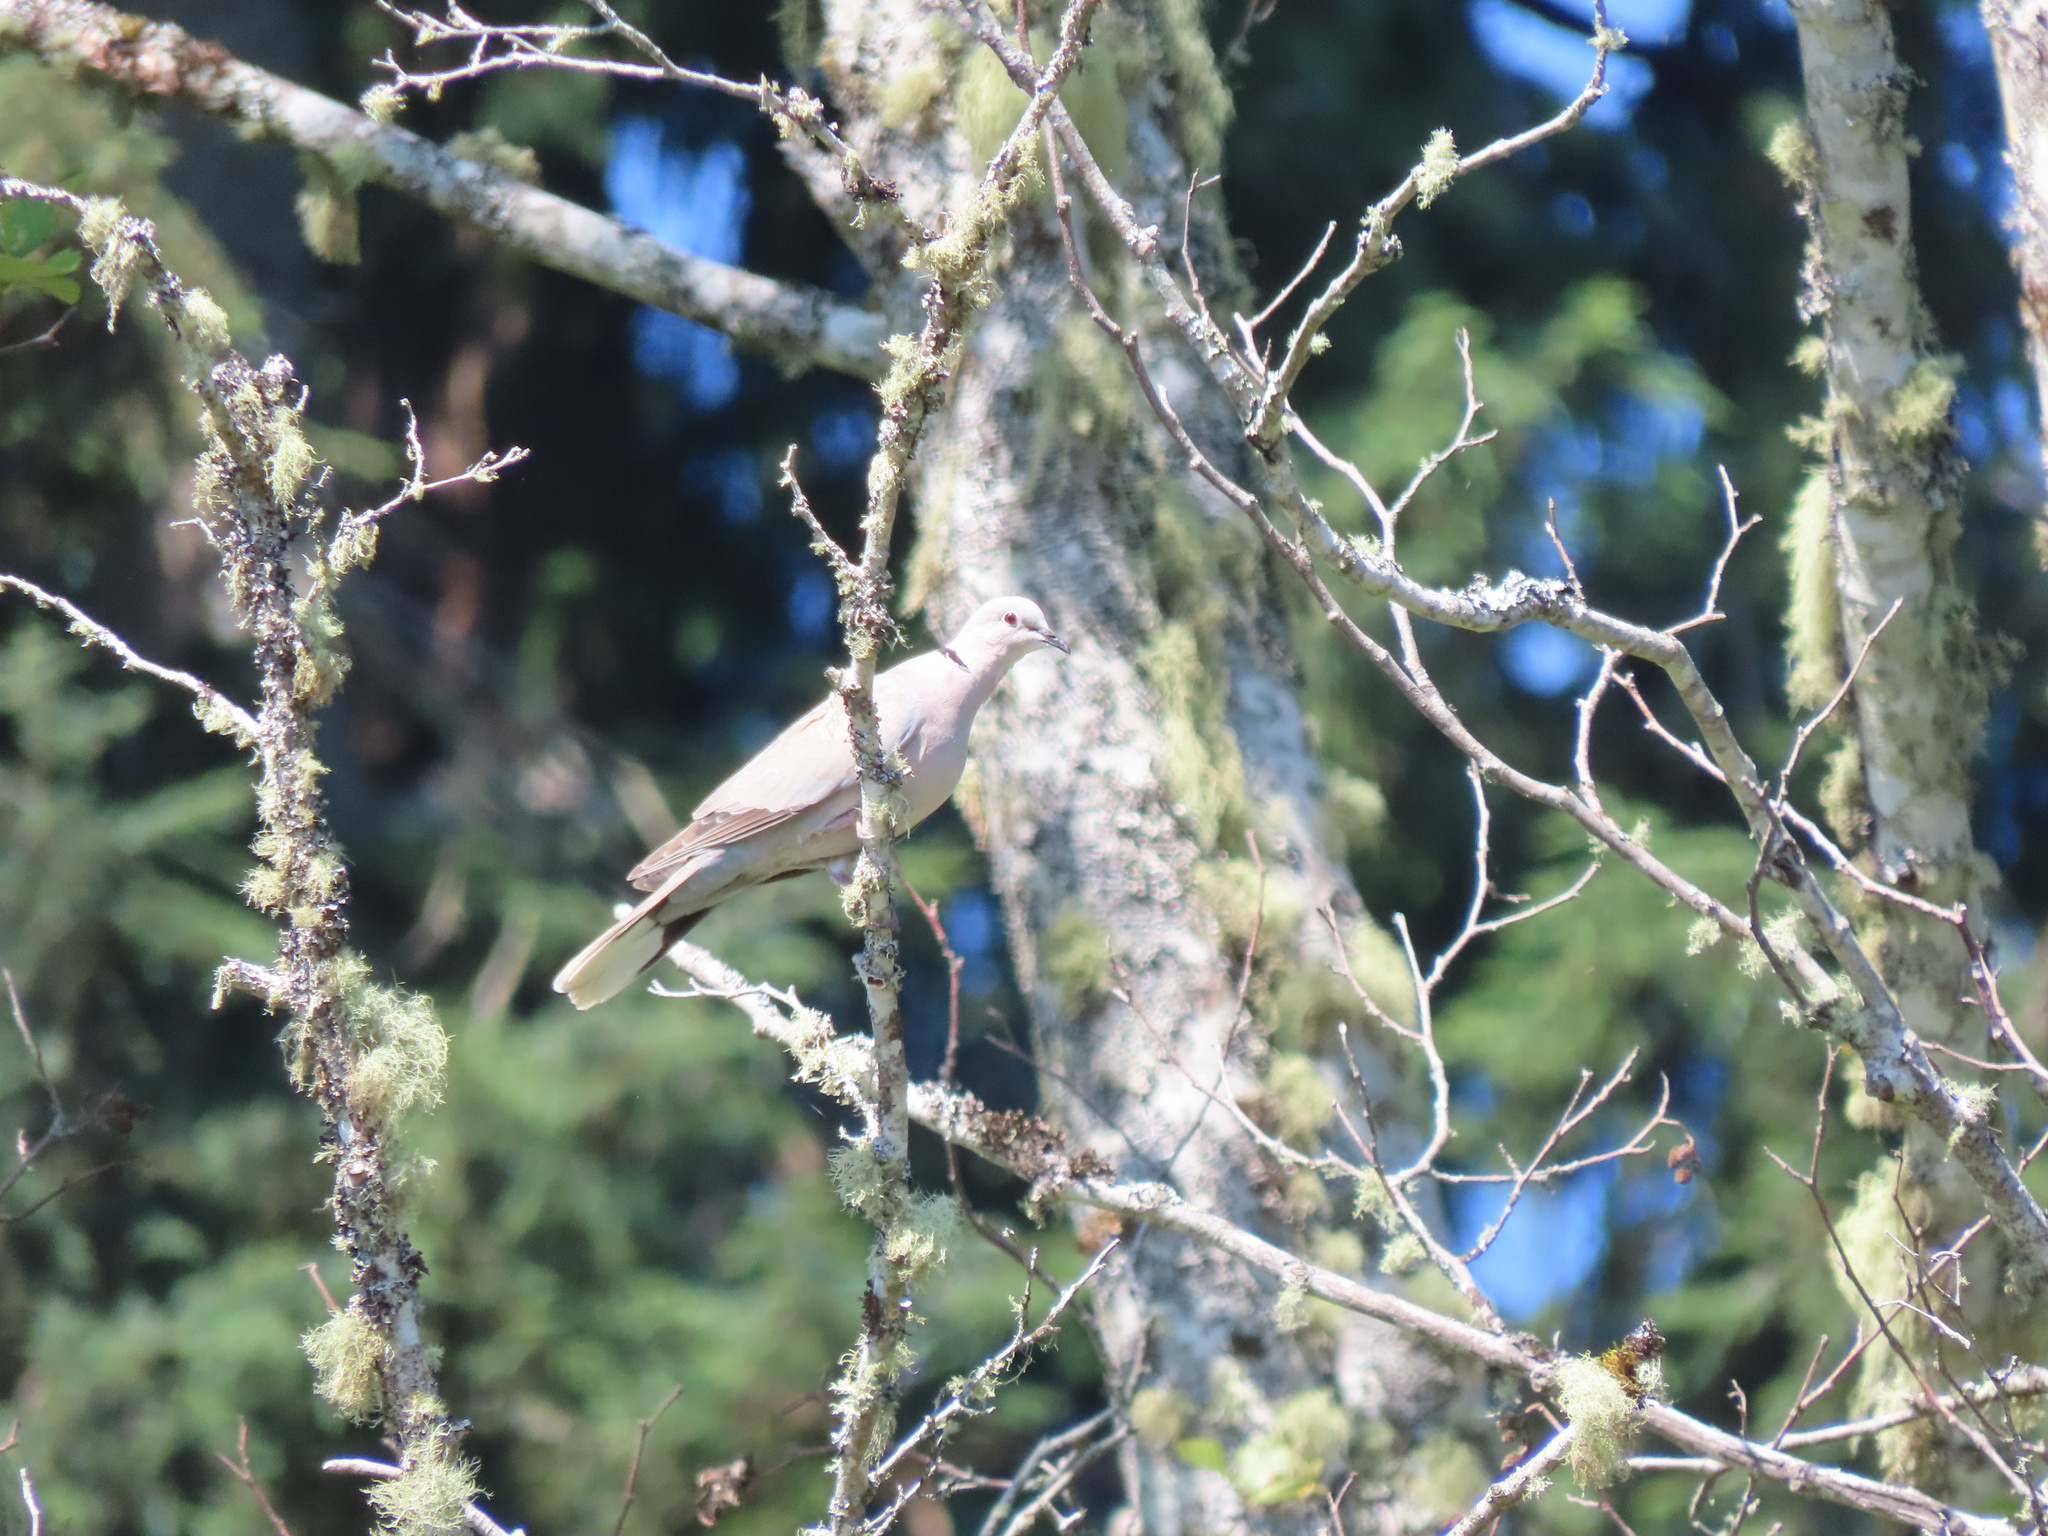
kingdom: Animalia
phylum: Chordata
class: Aves
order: Columbiformes
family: Columbidae
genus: Streptopelia
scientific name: Streptopelia decaocto
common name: Eurasian collared dove
